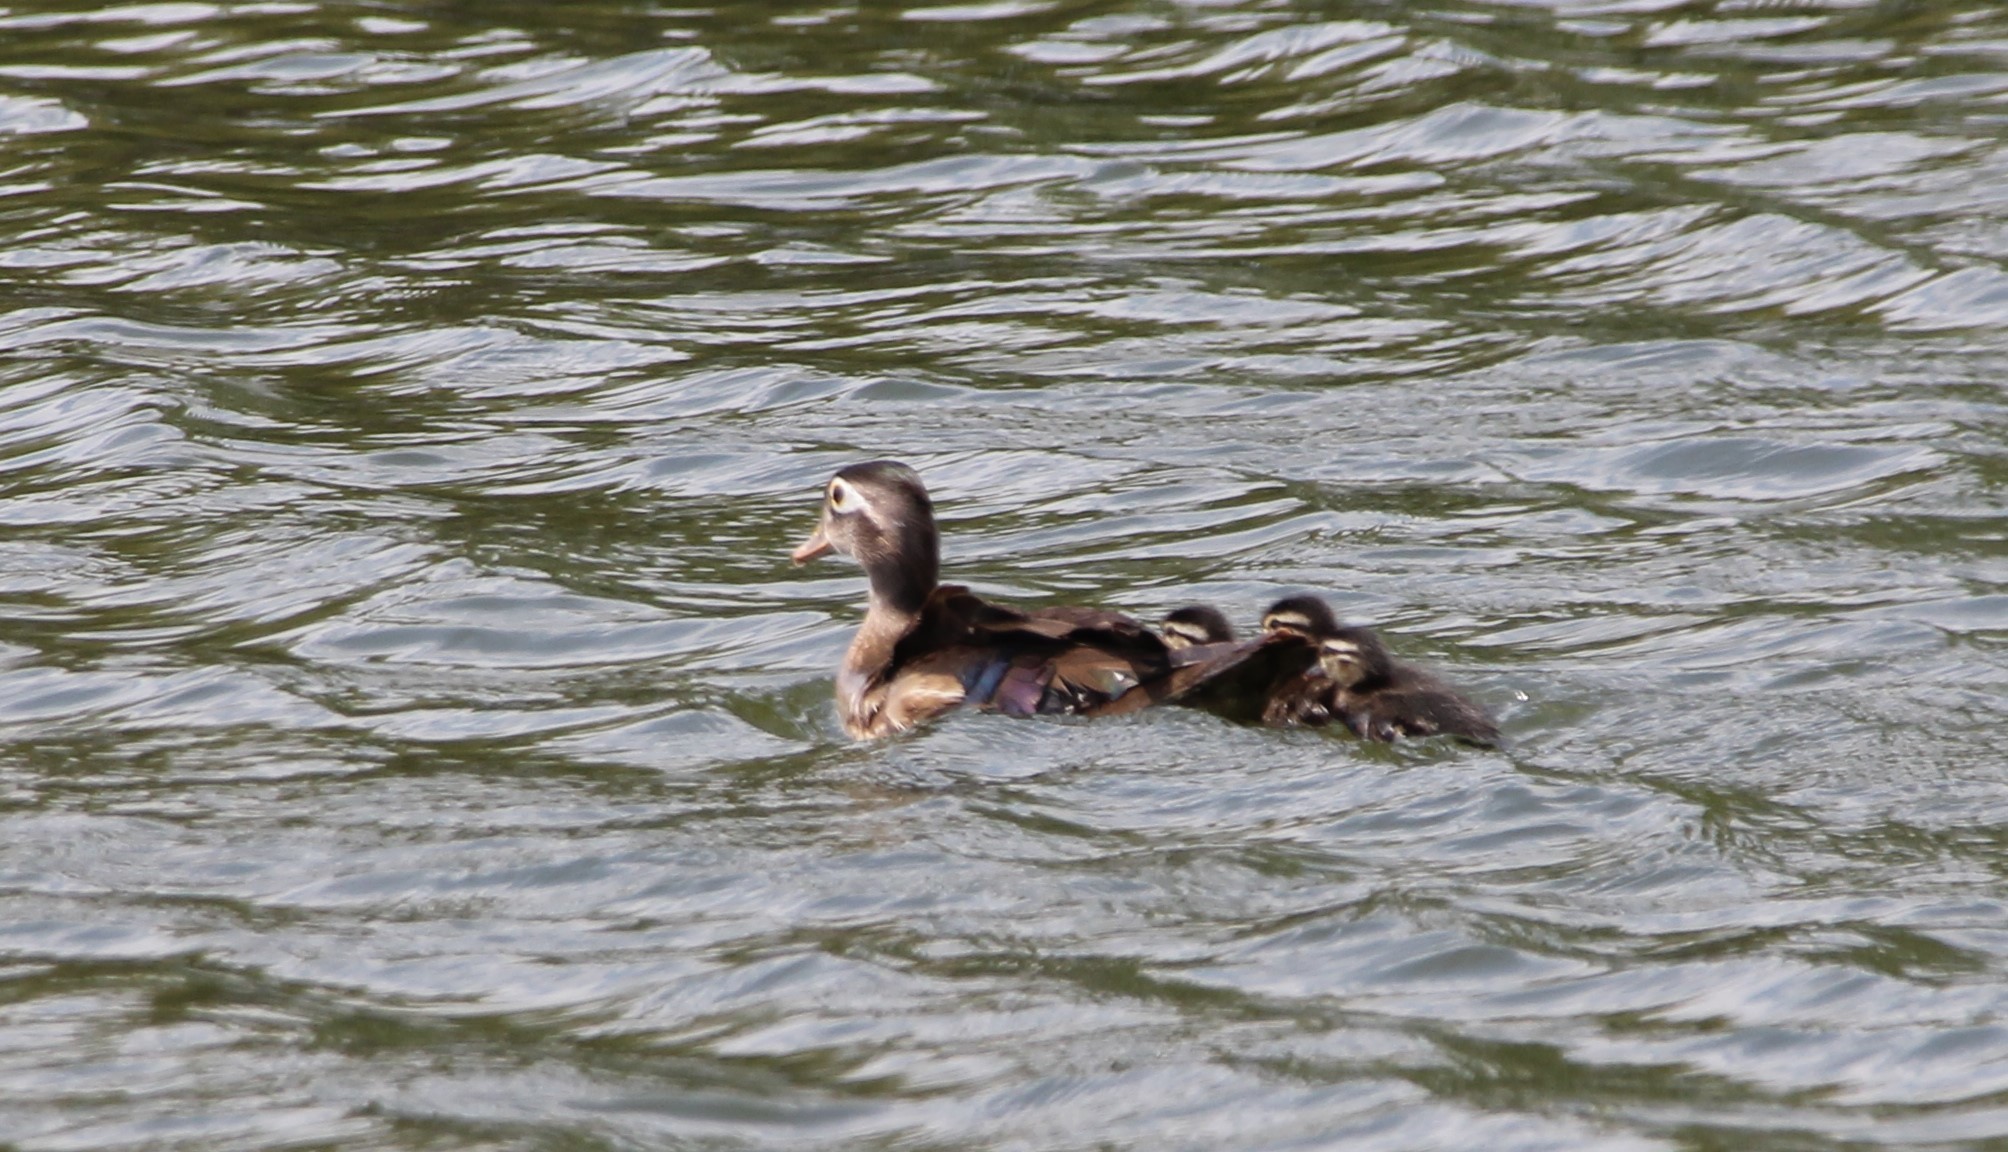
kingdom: Animalia
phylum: Chordata
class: Aves
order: Anseriformes
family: Anatidae
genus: Aix
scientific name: Aix sponsa
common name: Wood duck
